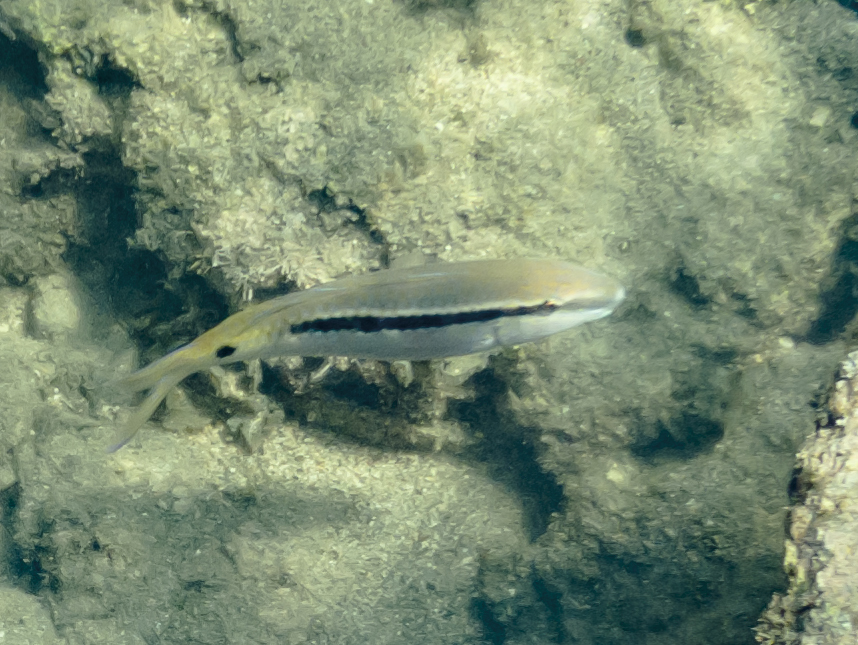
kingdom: Animalia
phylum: Chordata
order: Perciformes
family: Mullidae
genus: Parupeneus
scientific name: Parupeneus forsskali
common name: Red sea goatfish
